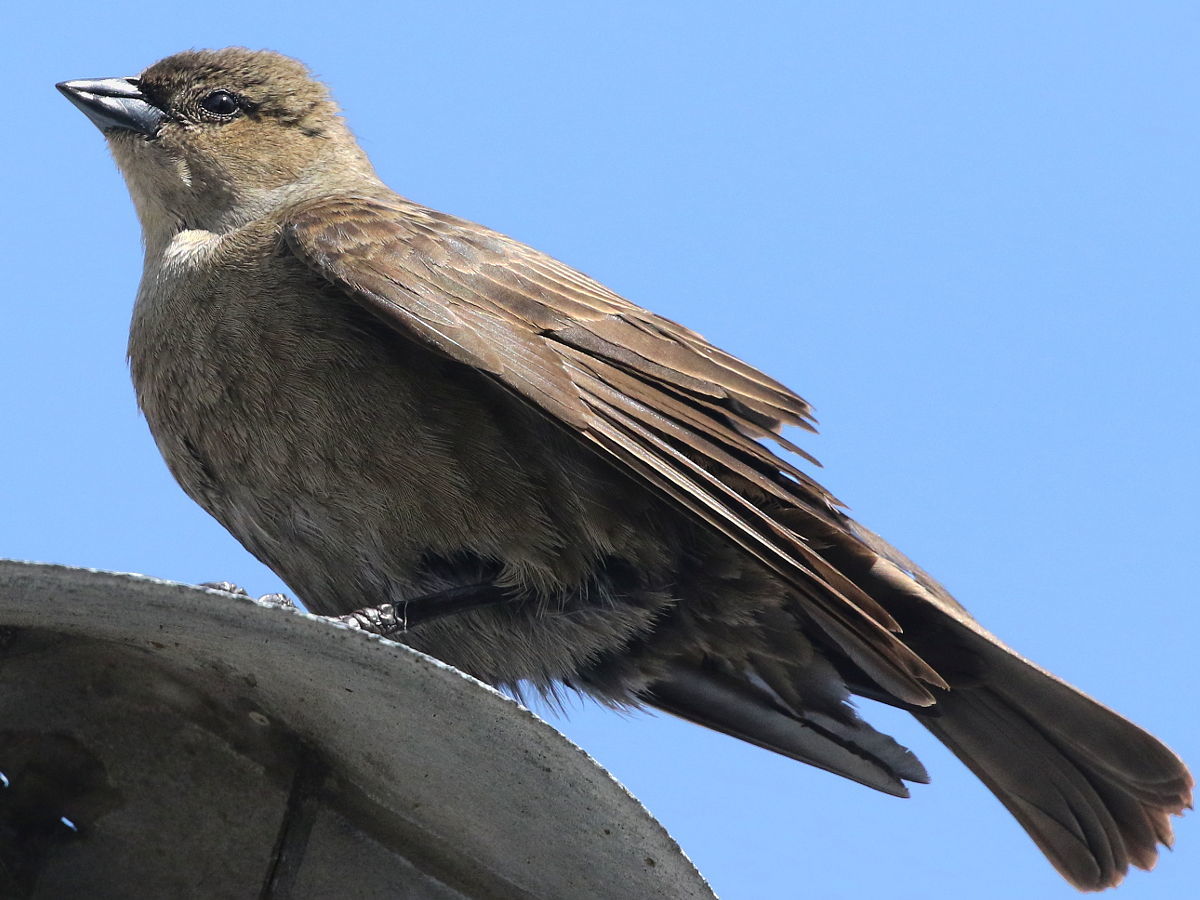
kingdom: Animalia
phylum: Chordata
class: Aves
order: Passeriformes
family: Icteridae
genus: Molothrus
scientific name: Molothrus bonariensis
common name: Shiny cowbird
